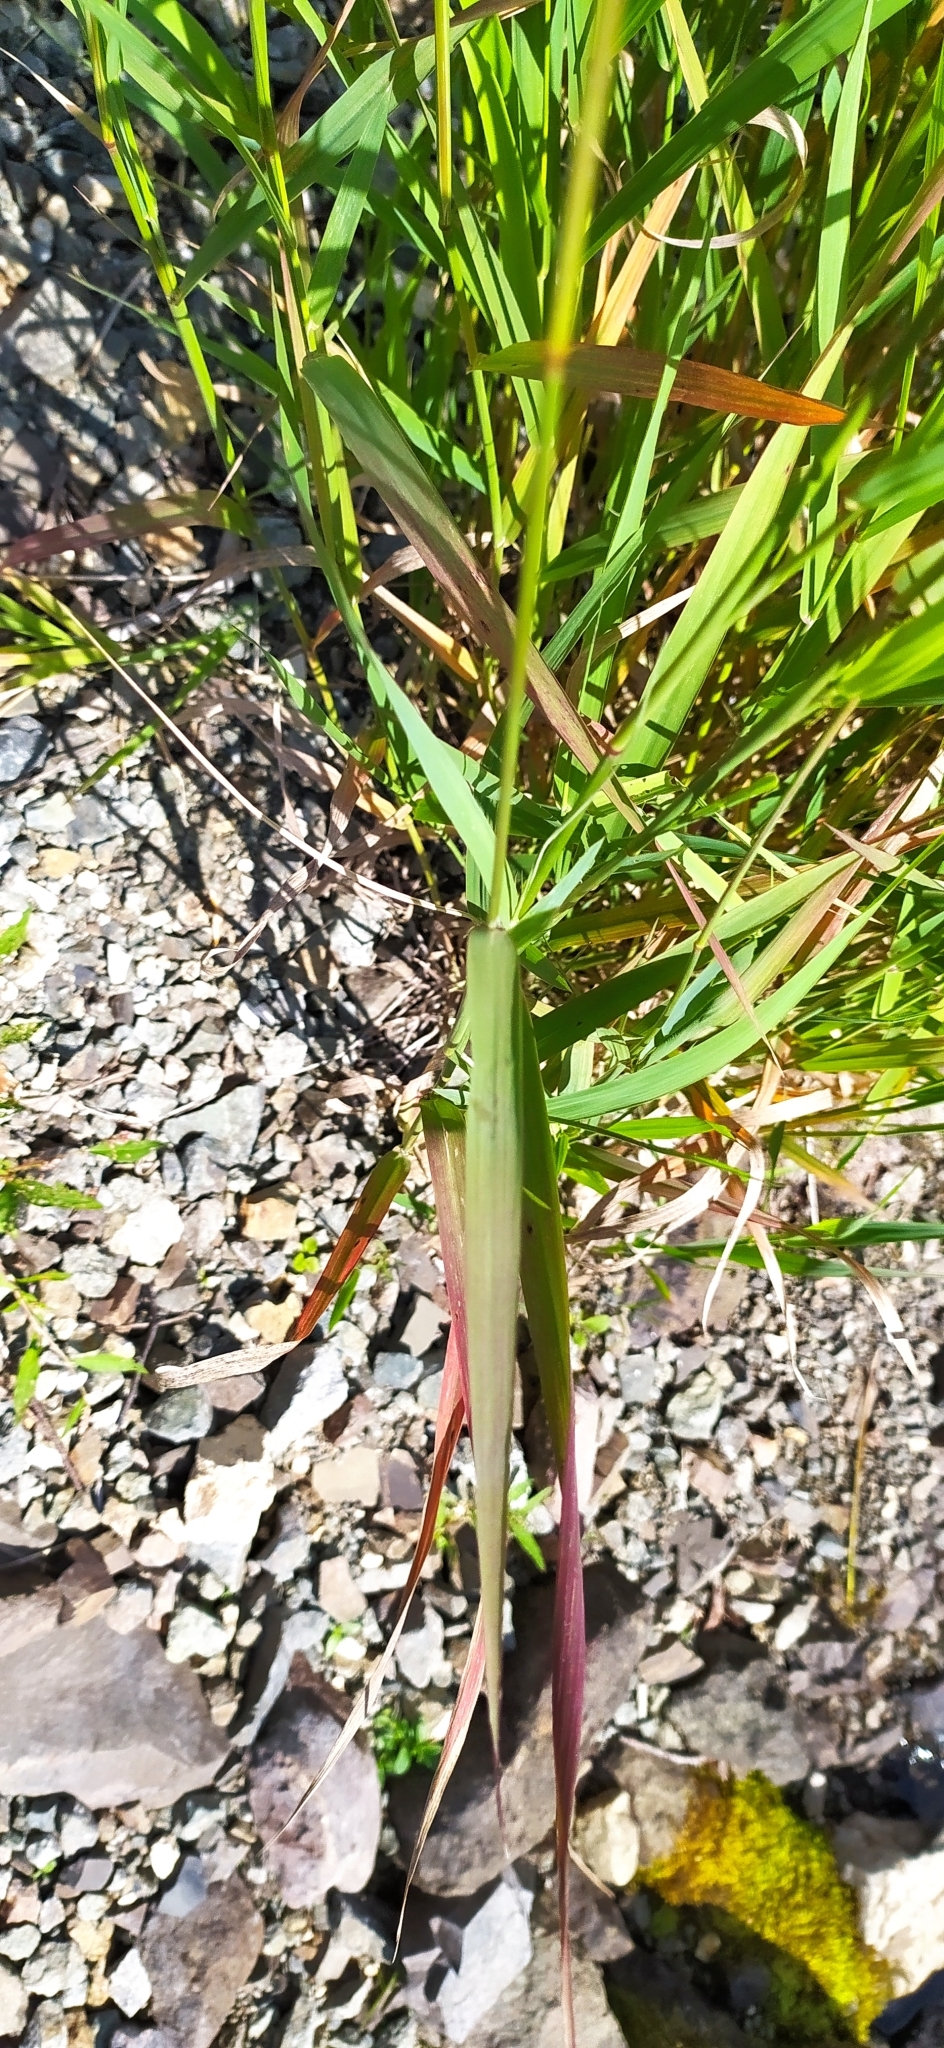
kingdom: Plantae
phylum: Tracheophyta
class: Liliopsida
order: Poales
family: Poaceae
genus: Phalaris
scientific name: Phalaris arundinacea
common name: Reed canary-grass
